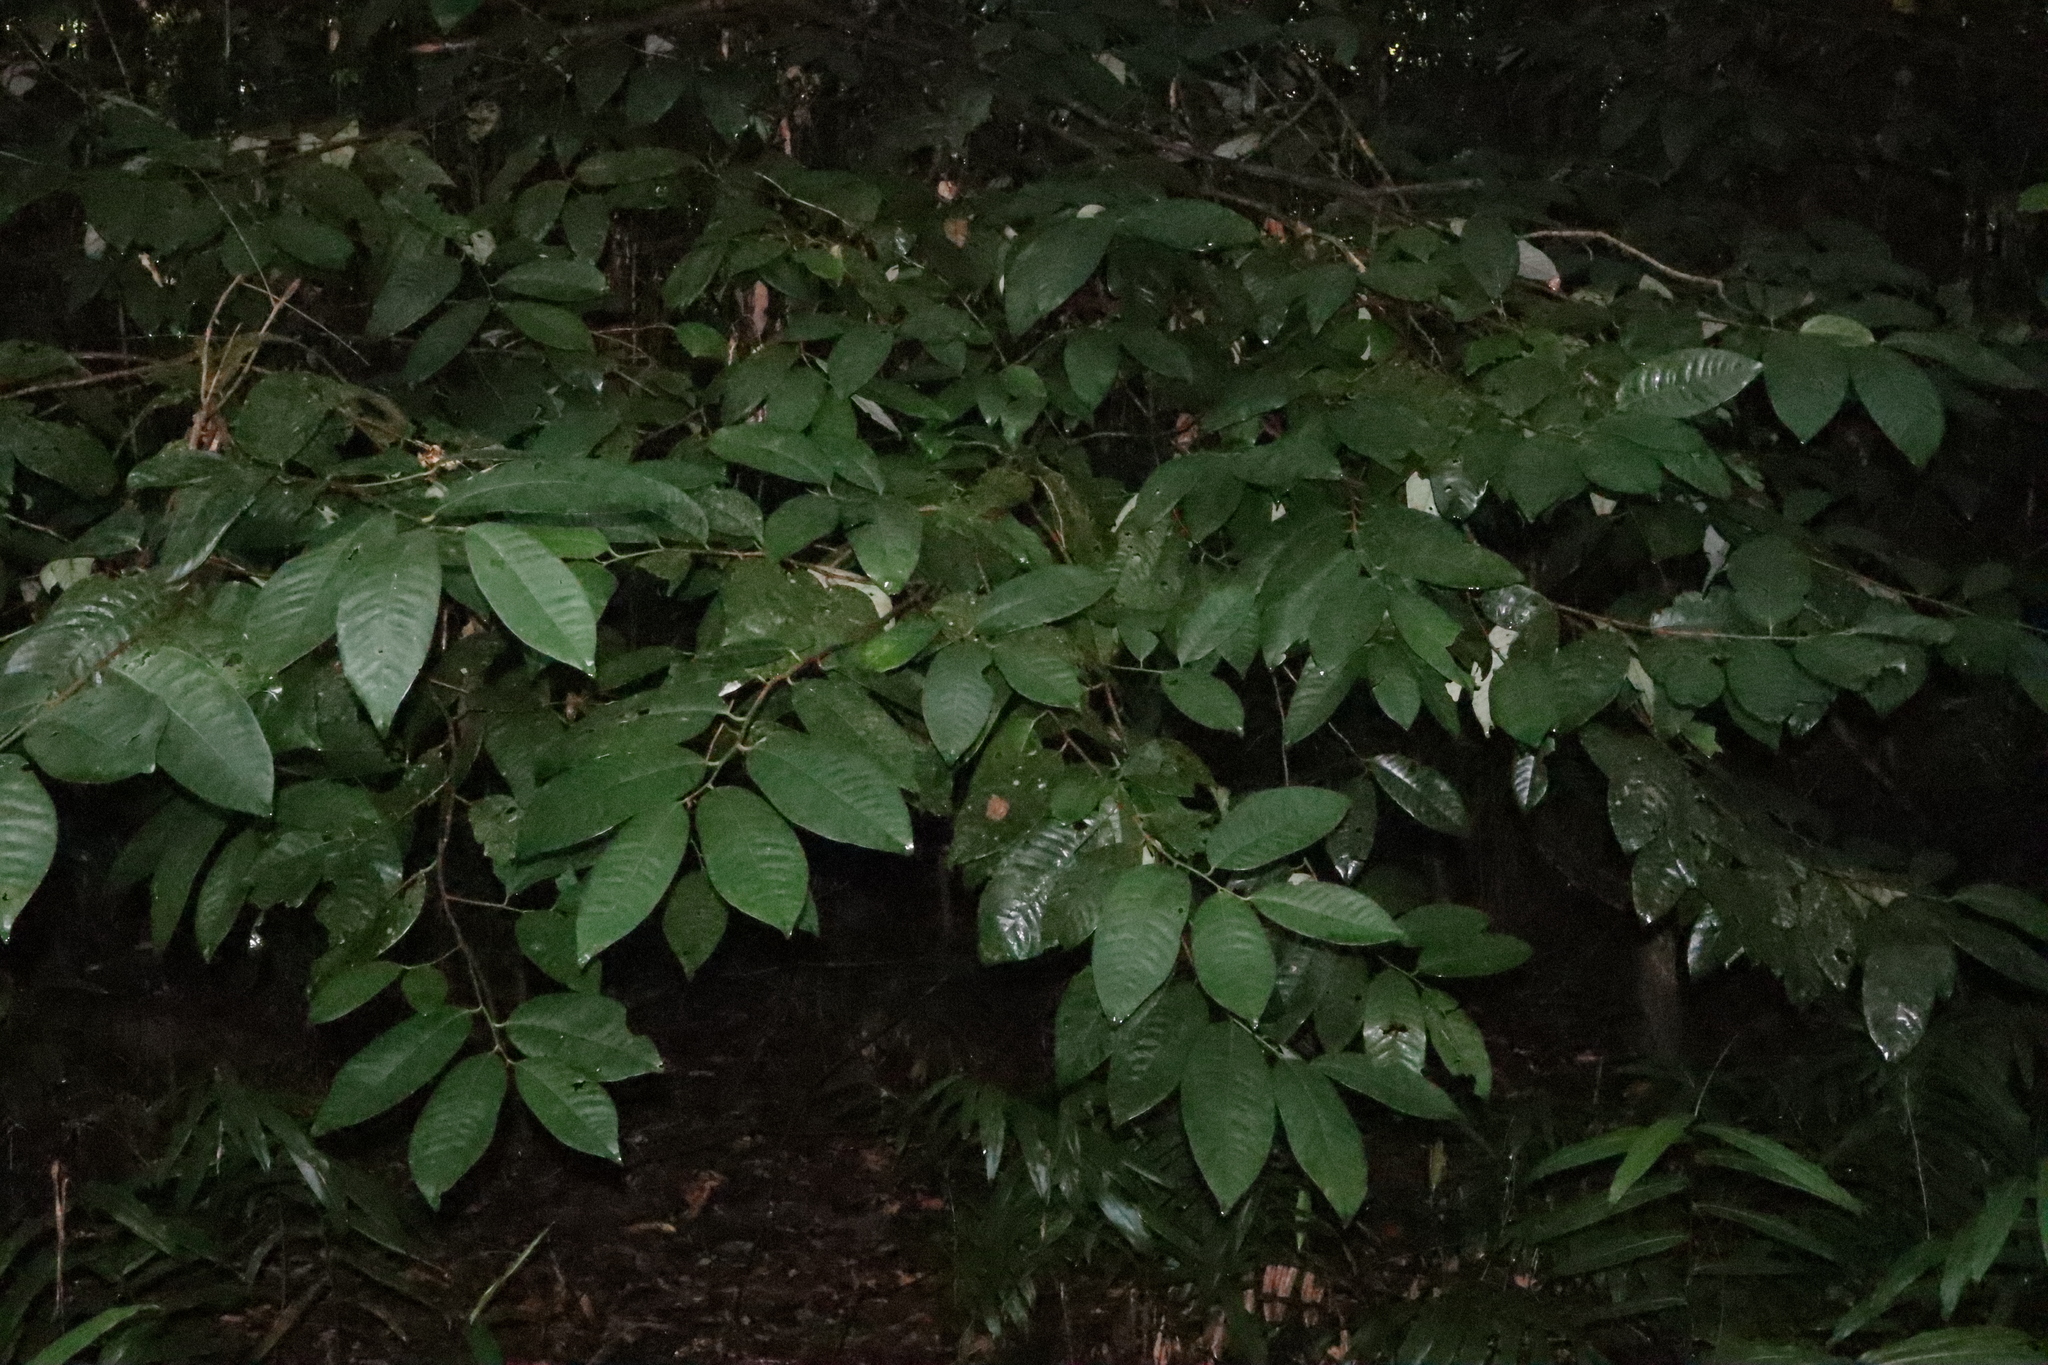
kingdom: Plantae
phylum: Tracheophyta
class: Magnoliopsida
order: Magnoliales
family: Myristicaceae
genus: Myristica
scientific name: Myristica globosa
